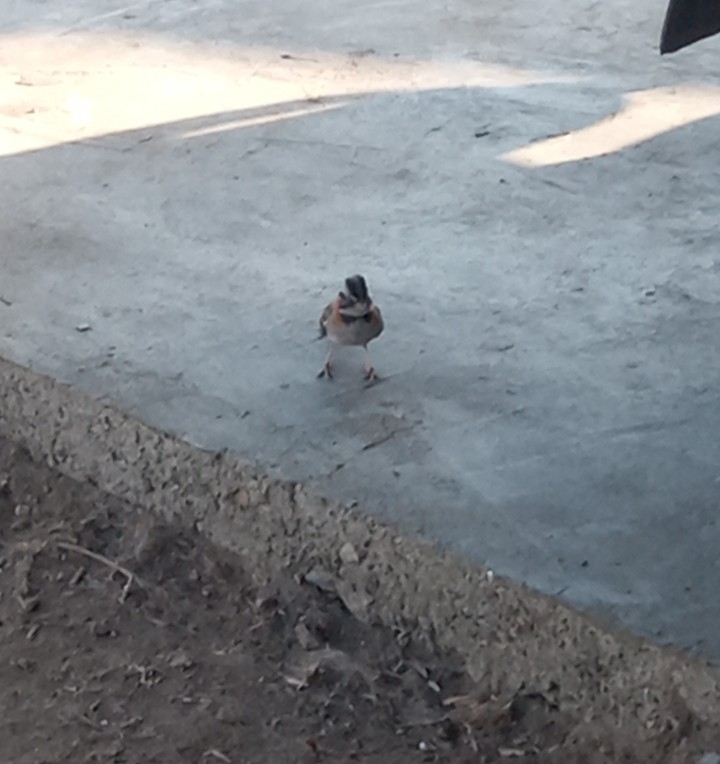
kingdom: Animalia
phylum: Chordata
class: Aves
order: Passeriformes
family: Passerellidae
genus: Zonotrichia
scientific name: Zonotrichia capensis
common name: Rufous-collared sparrow
